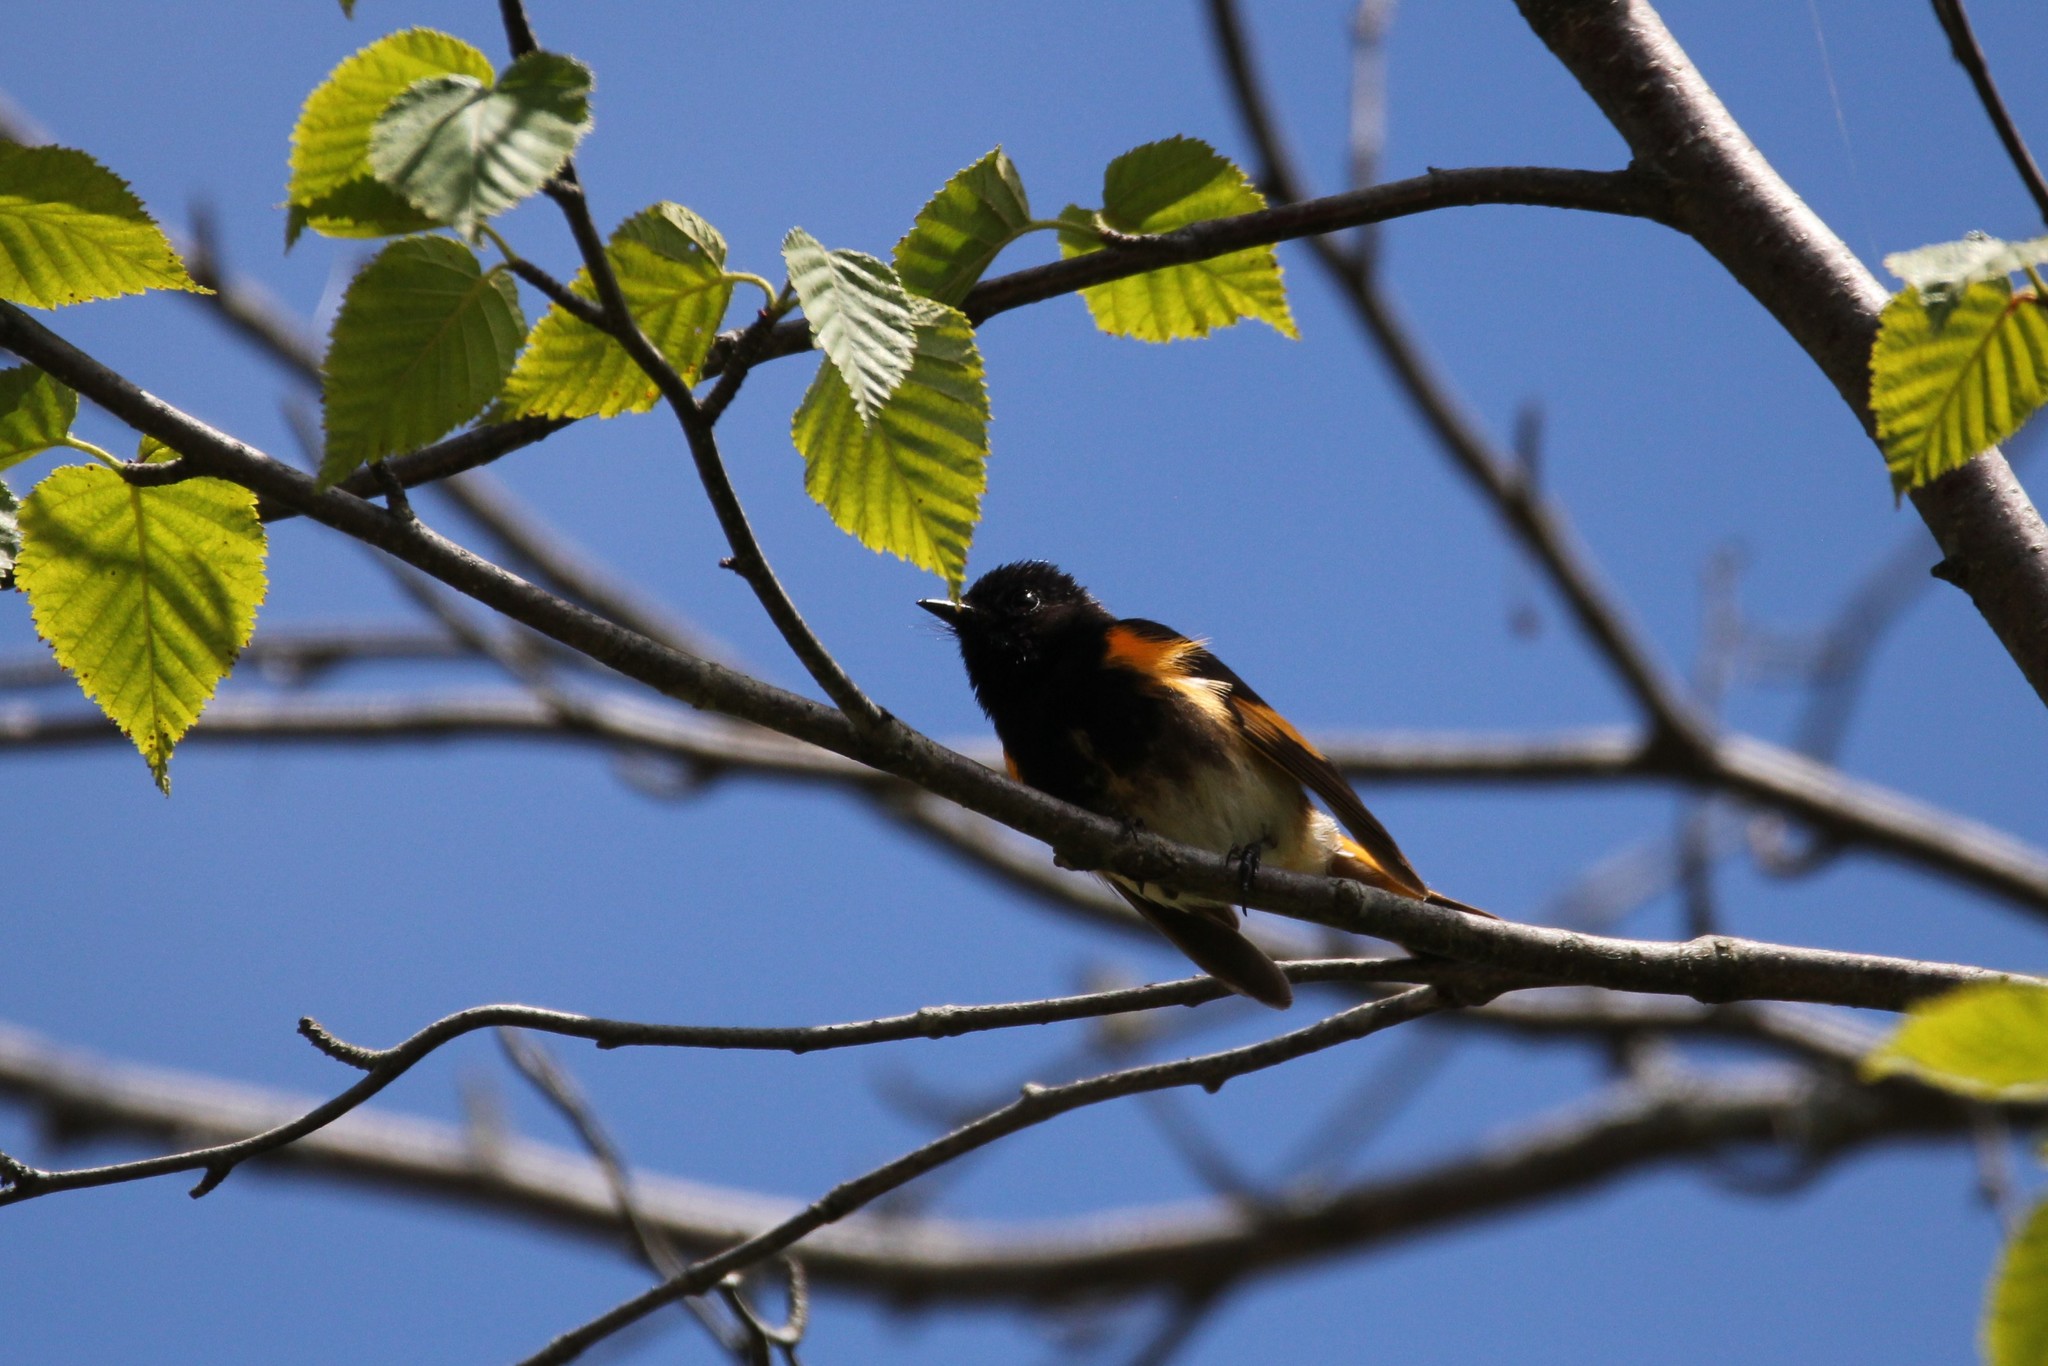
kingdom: Animalia
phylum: Chordata
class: Aves
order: Passeriformes
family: Parulidae
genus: Setophaga
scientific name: Setophaga ruticilla
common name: American redstart
